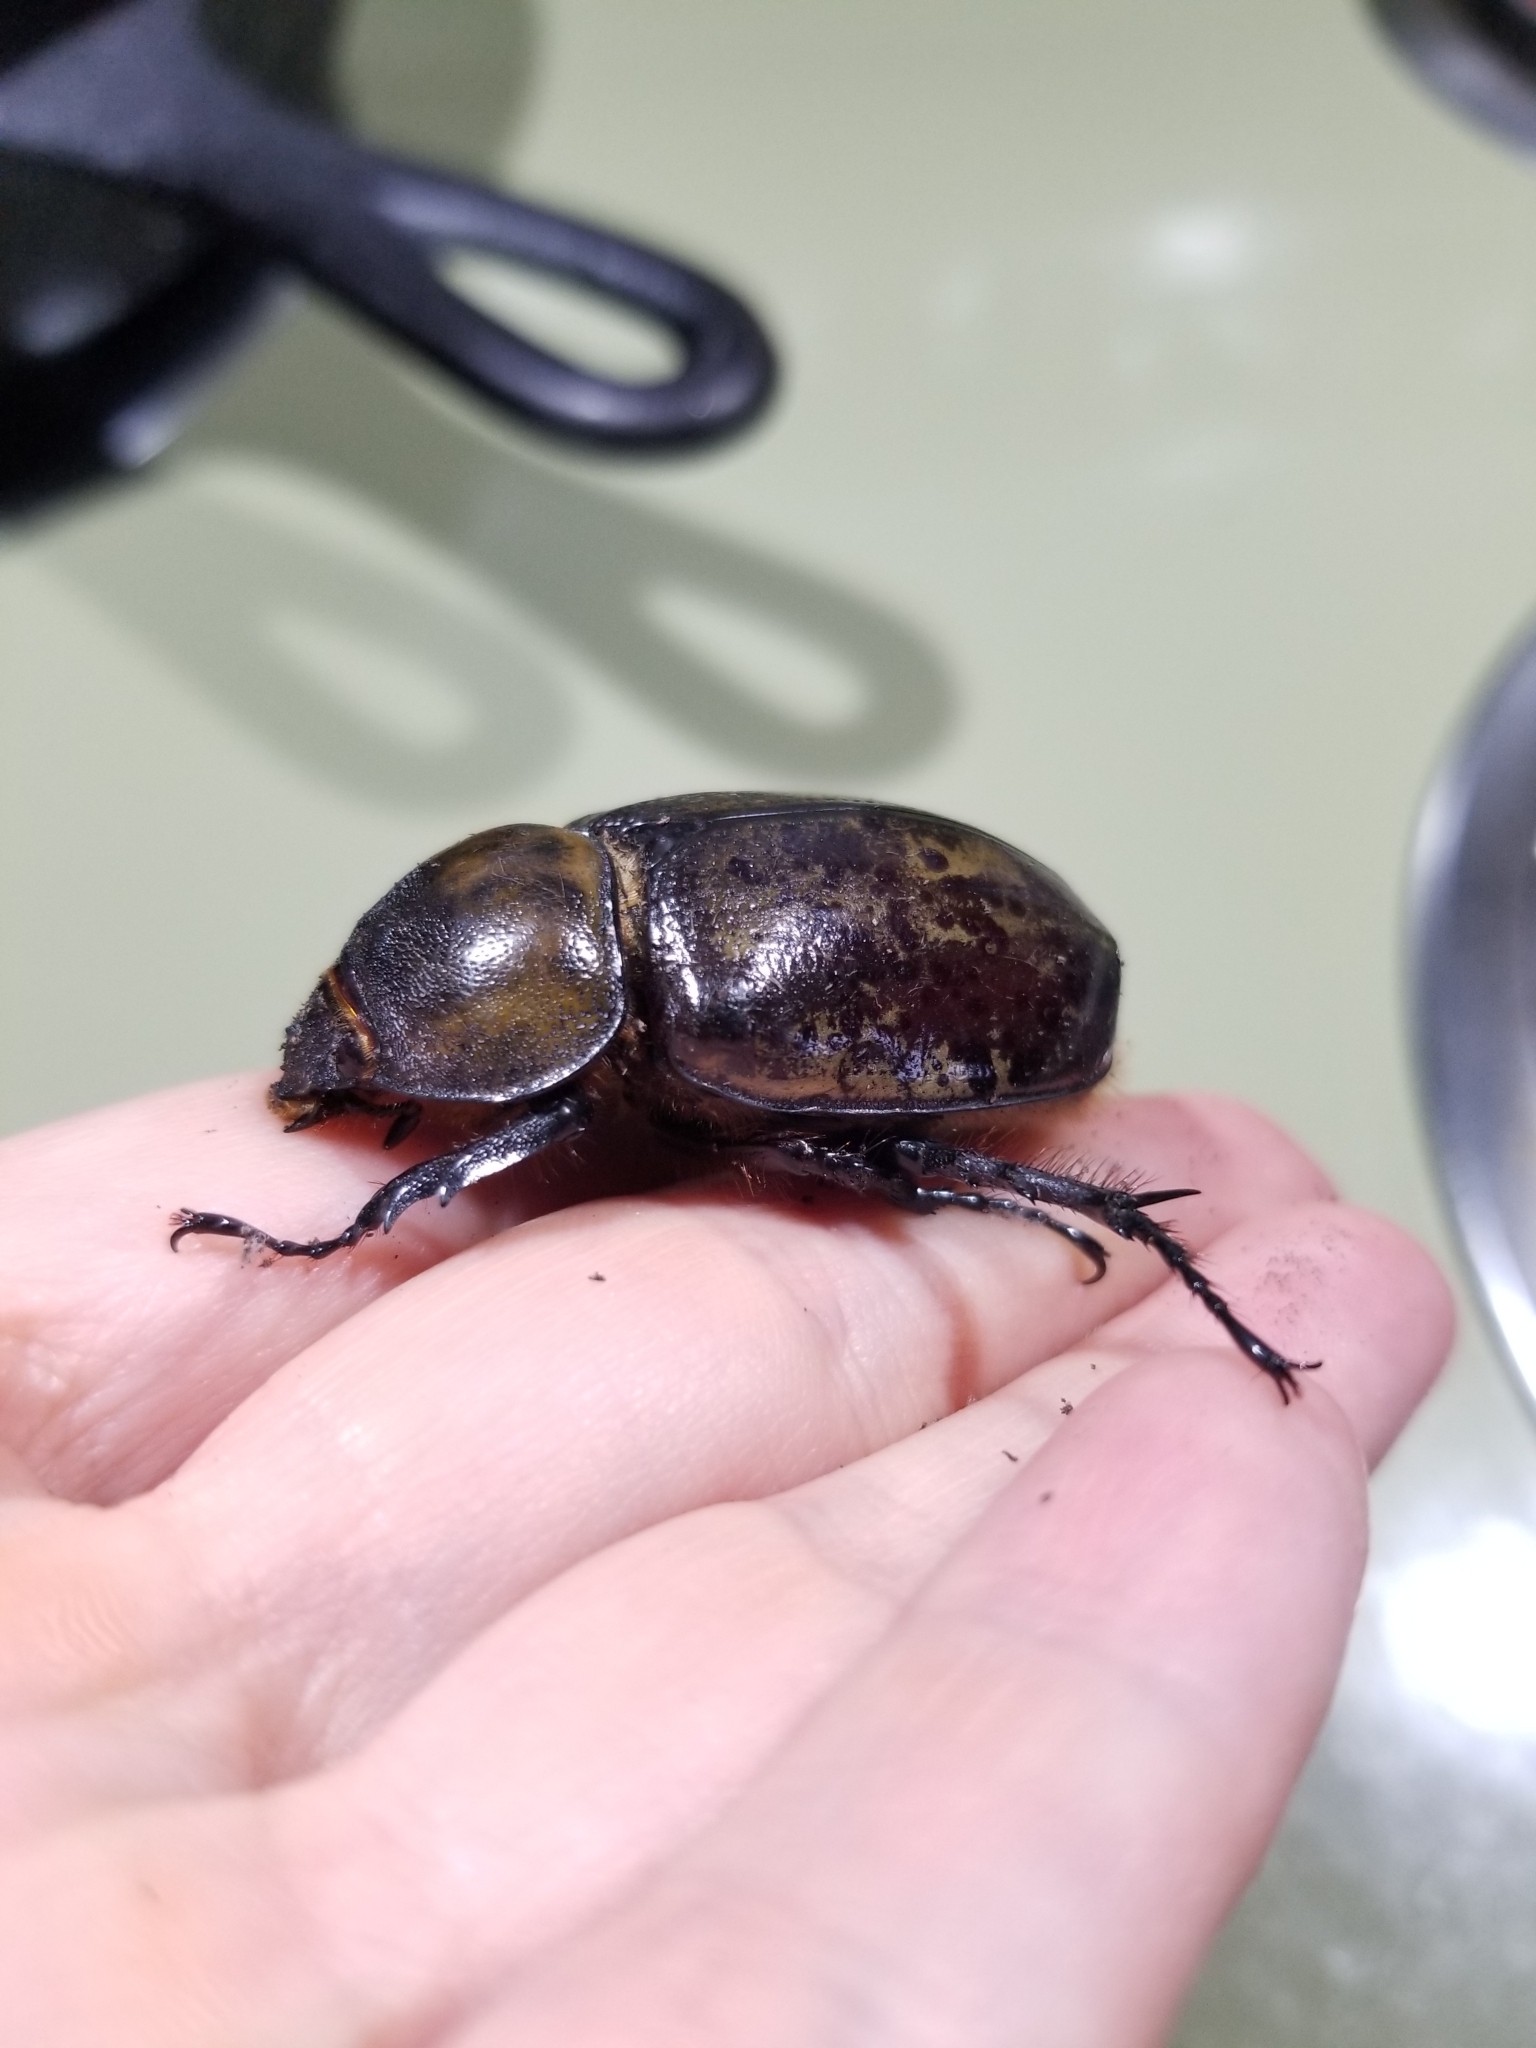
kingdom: Animalia
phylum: Arthropoda
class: Insecta
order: Coleoptera
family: Scarabaeidae
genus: Dynastes
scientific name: Dynastes tityus
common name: Eastern hercules beetle
